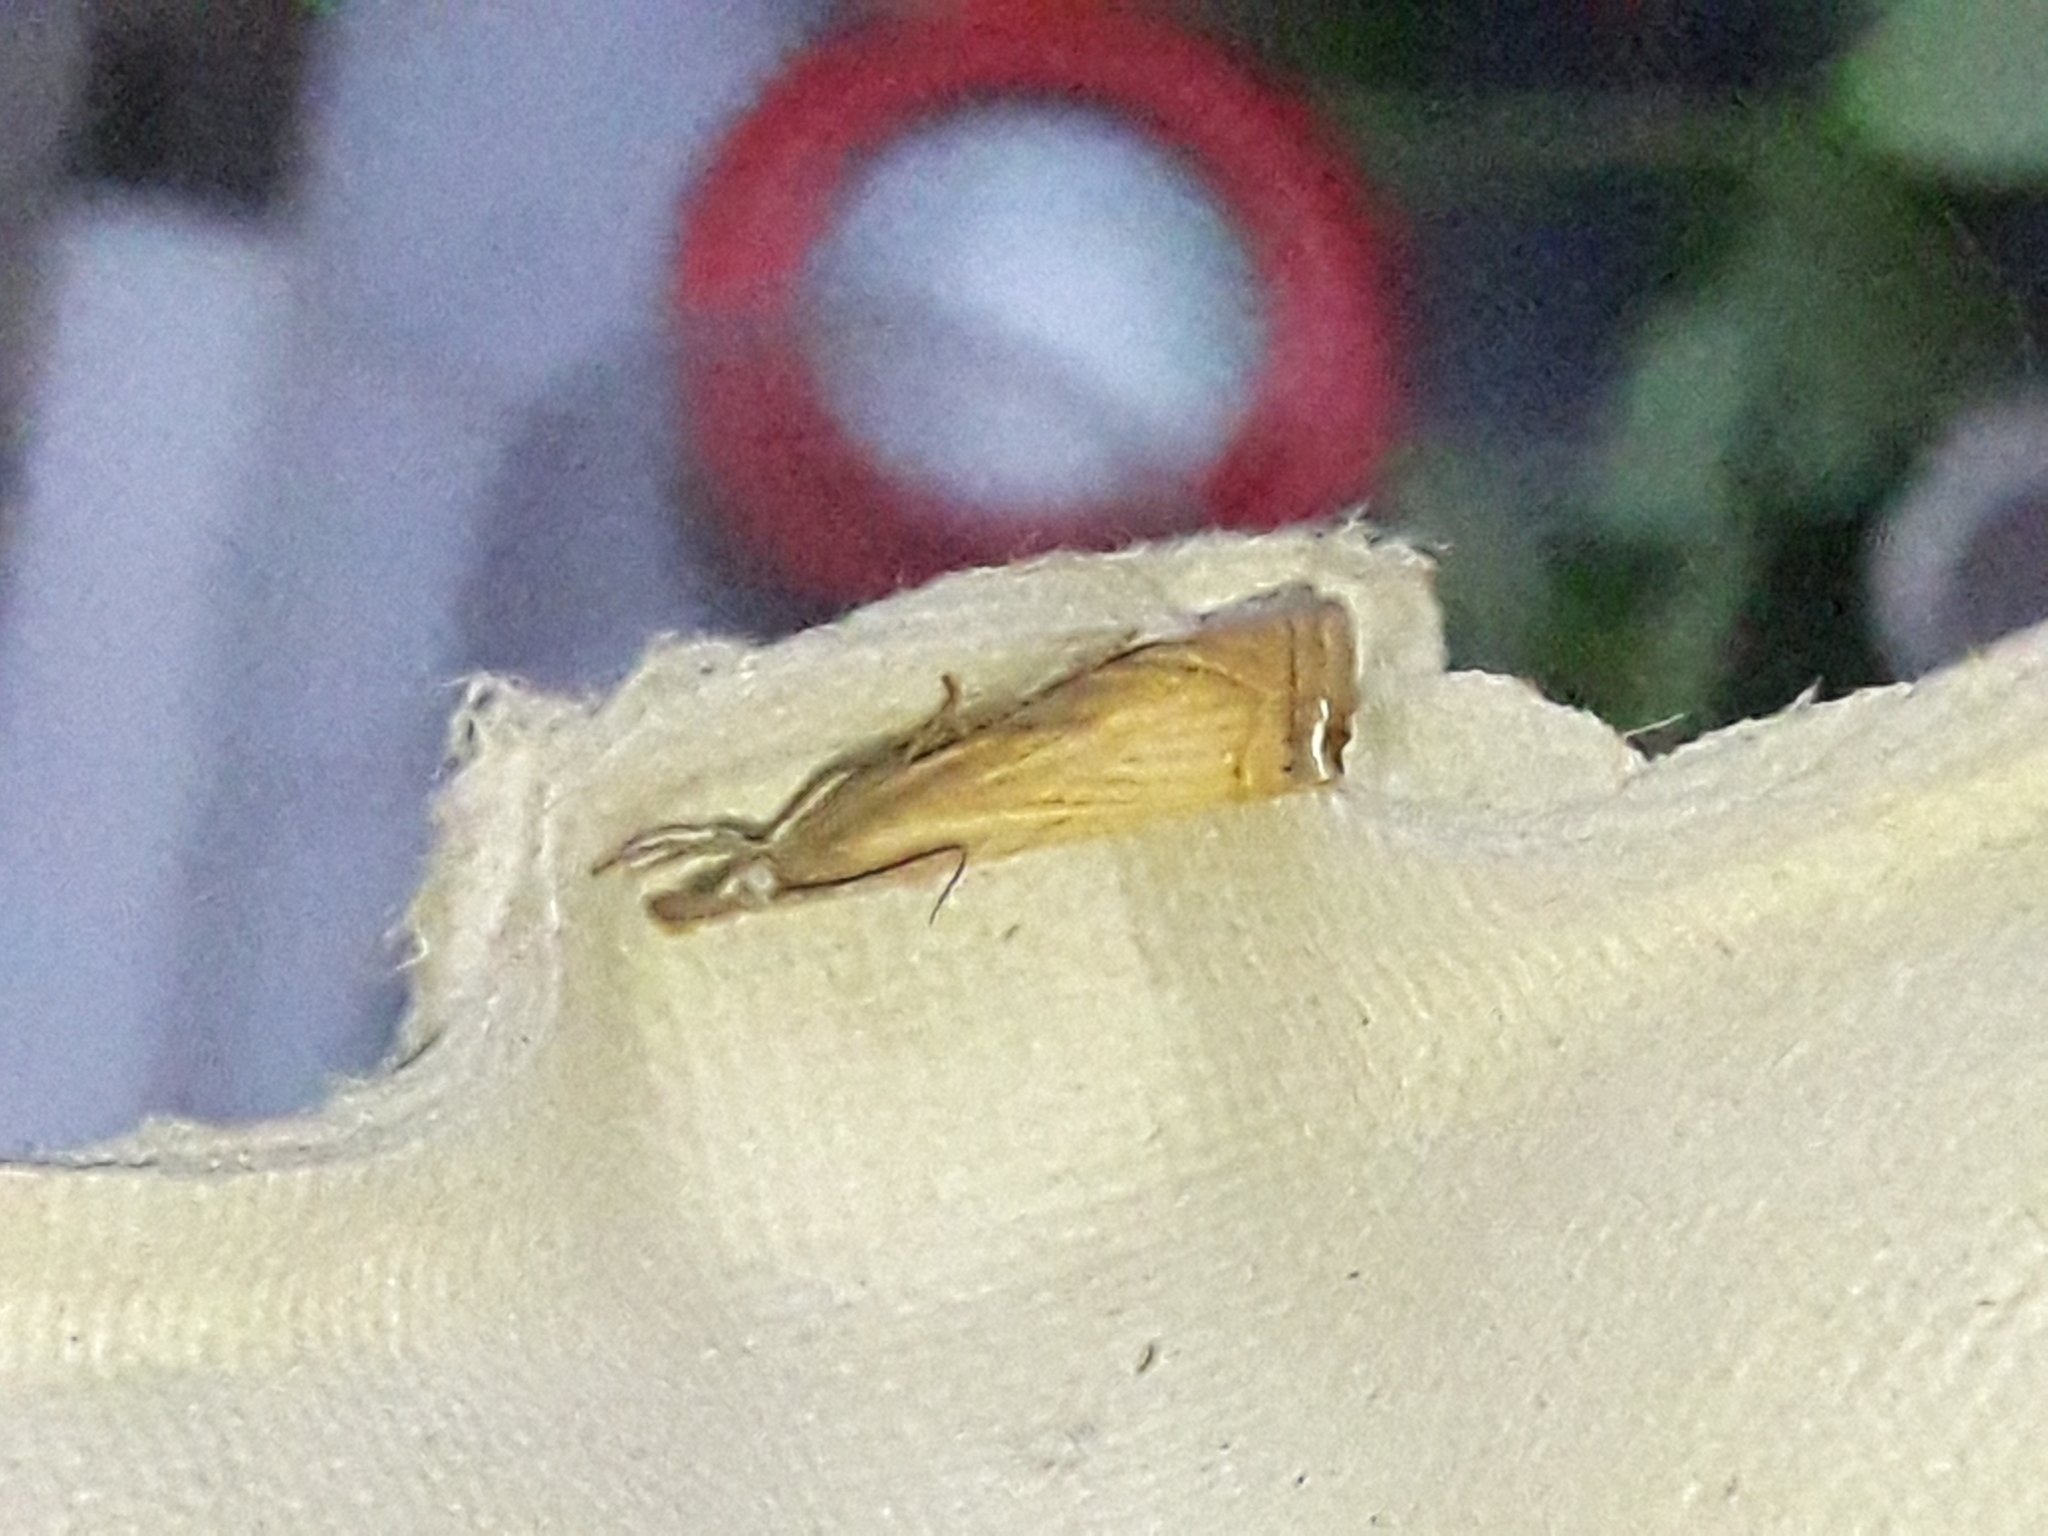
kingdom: Animalia
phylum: Arthropoda
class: Insecta
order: Lepidoptera
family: Crambidae
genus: Chrysoteuchia
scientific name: Chrysoteuchia culmella
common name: Garden grass-veneer
